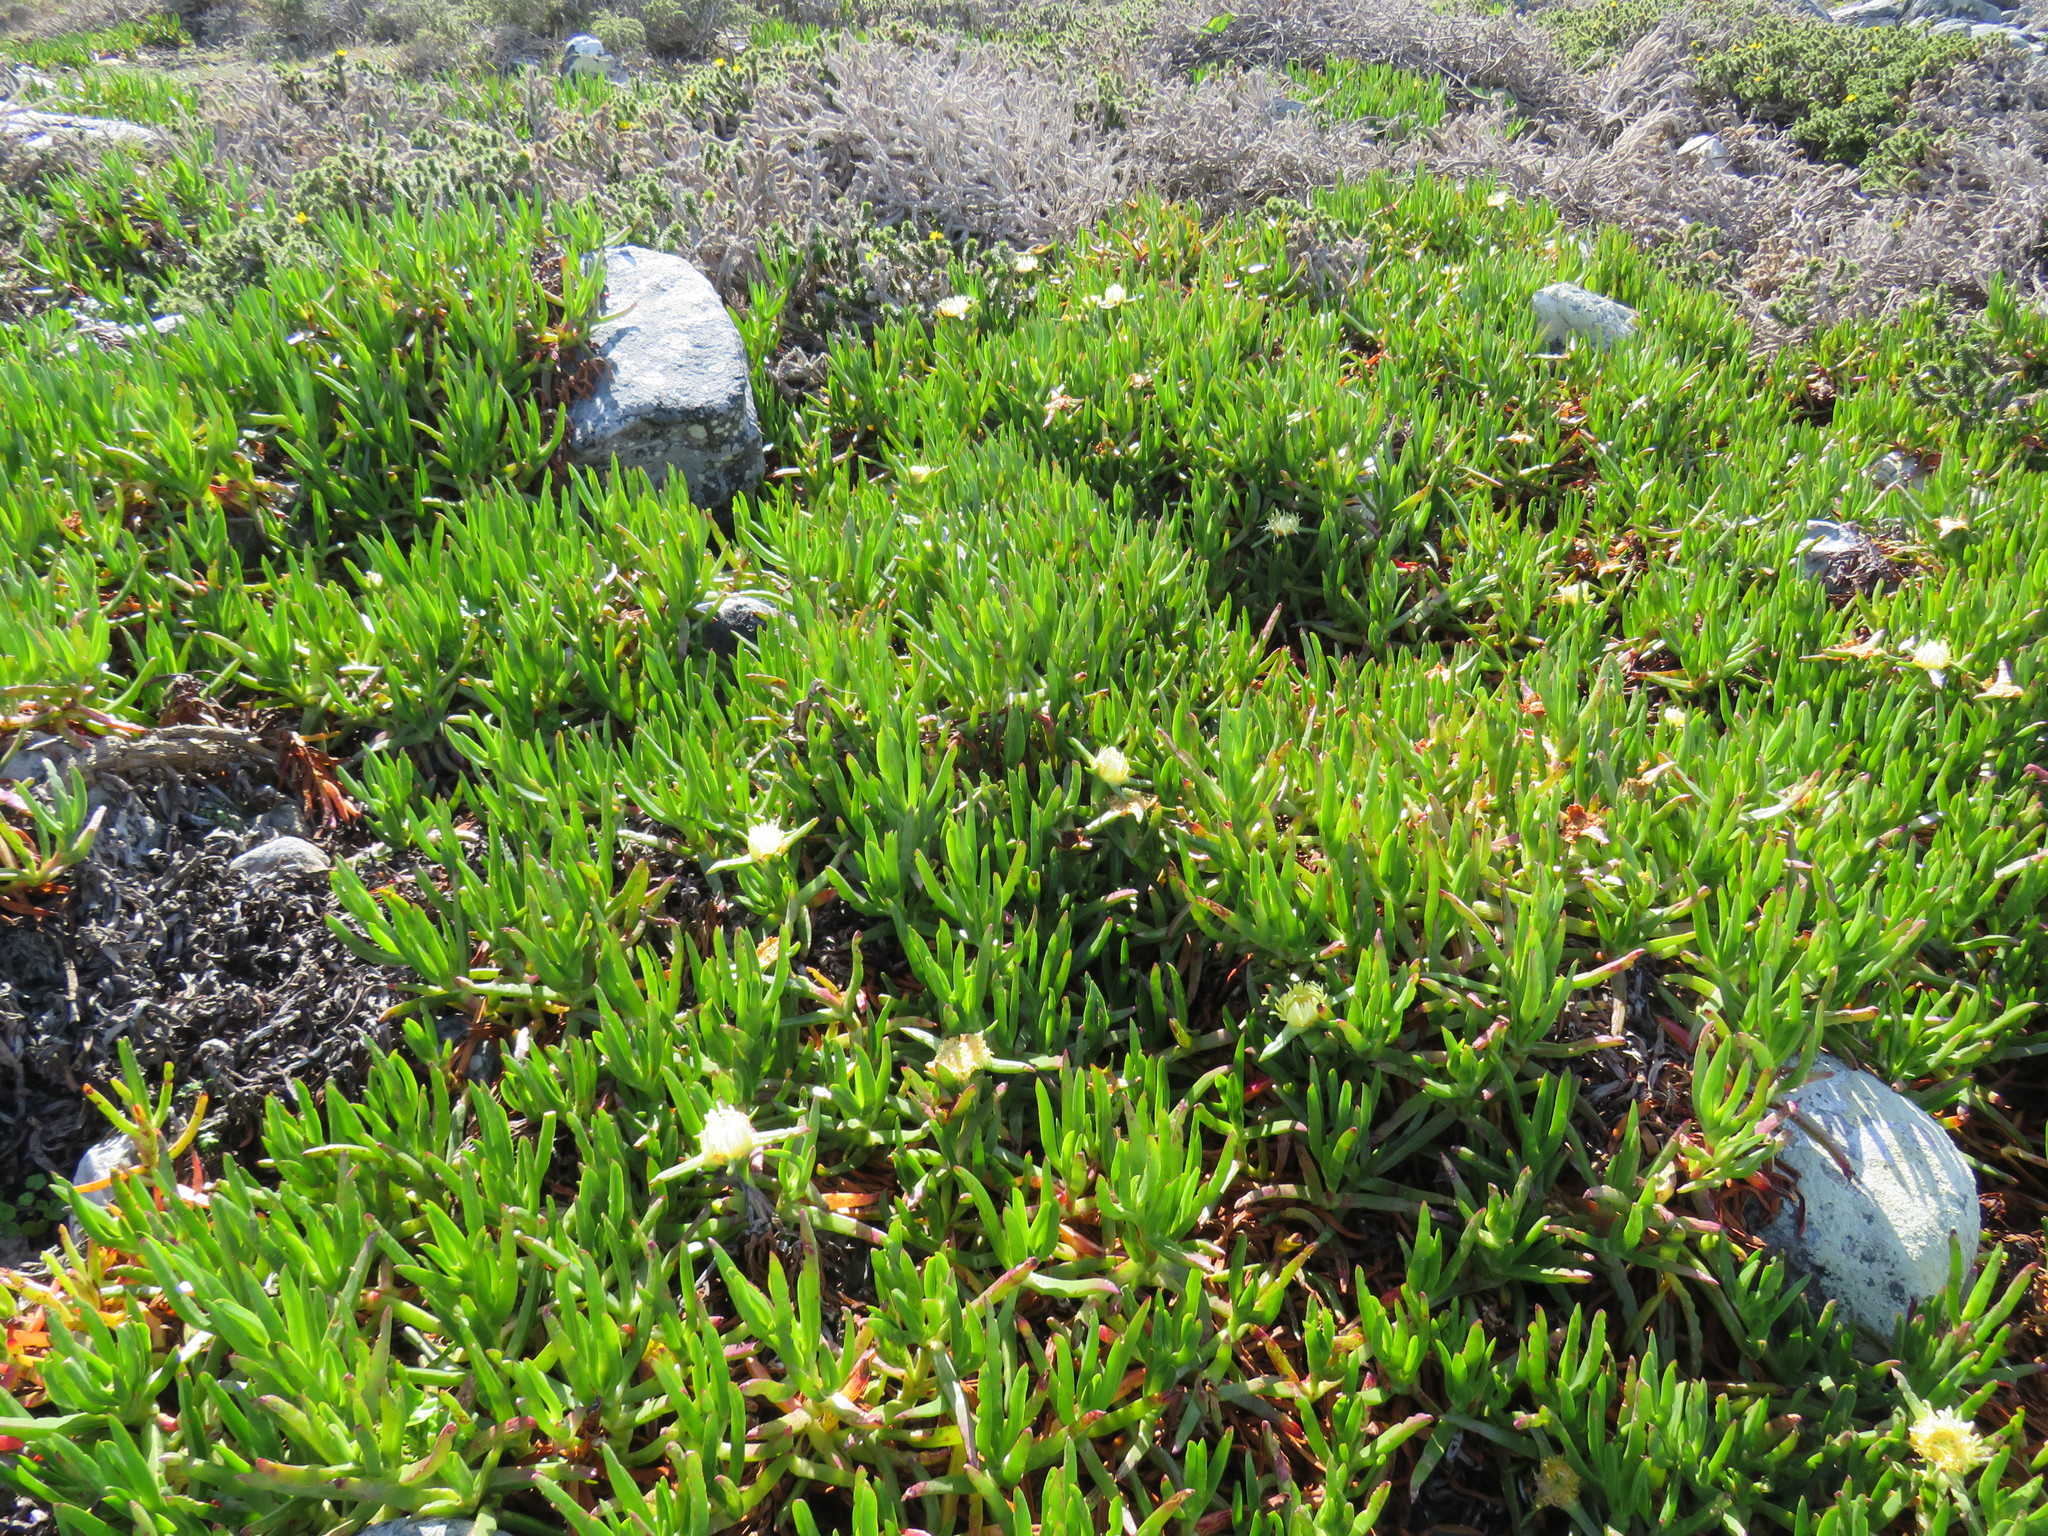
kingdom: Plantae
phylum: Tracheophyta
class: Magnoliopsida
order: Caryophyllales
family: Aizoaceae
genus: Carpobrotus
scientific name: Carpobrotus edulis
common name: Hottentot-fig
